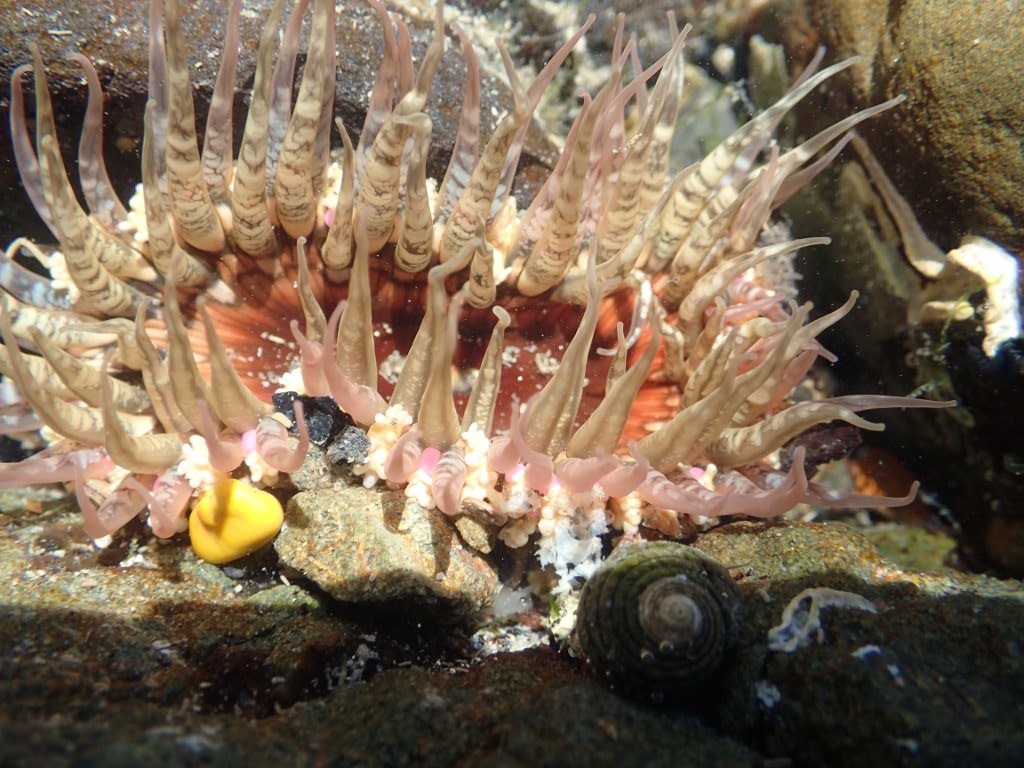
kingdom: Animalia
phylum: Cnidaria
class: Anthozoa
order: Actiniaria
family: Actiniidae
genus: Oulactis
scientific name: Oulactis muscosa
